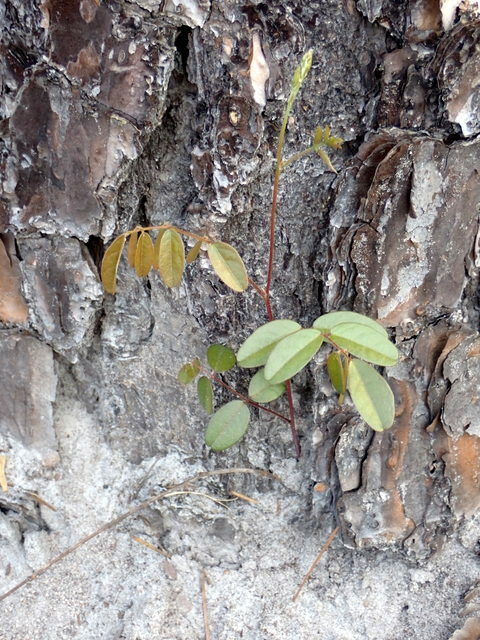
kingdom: Plantae
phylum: Tracheophyta
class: Magnoliopsida
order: Fabales
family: Fabaceae
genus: Galactia
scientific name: Galactia elliottii
